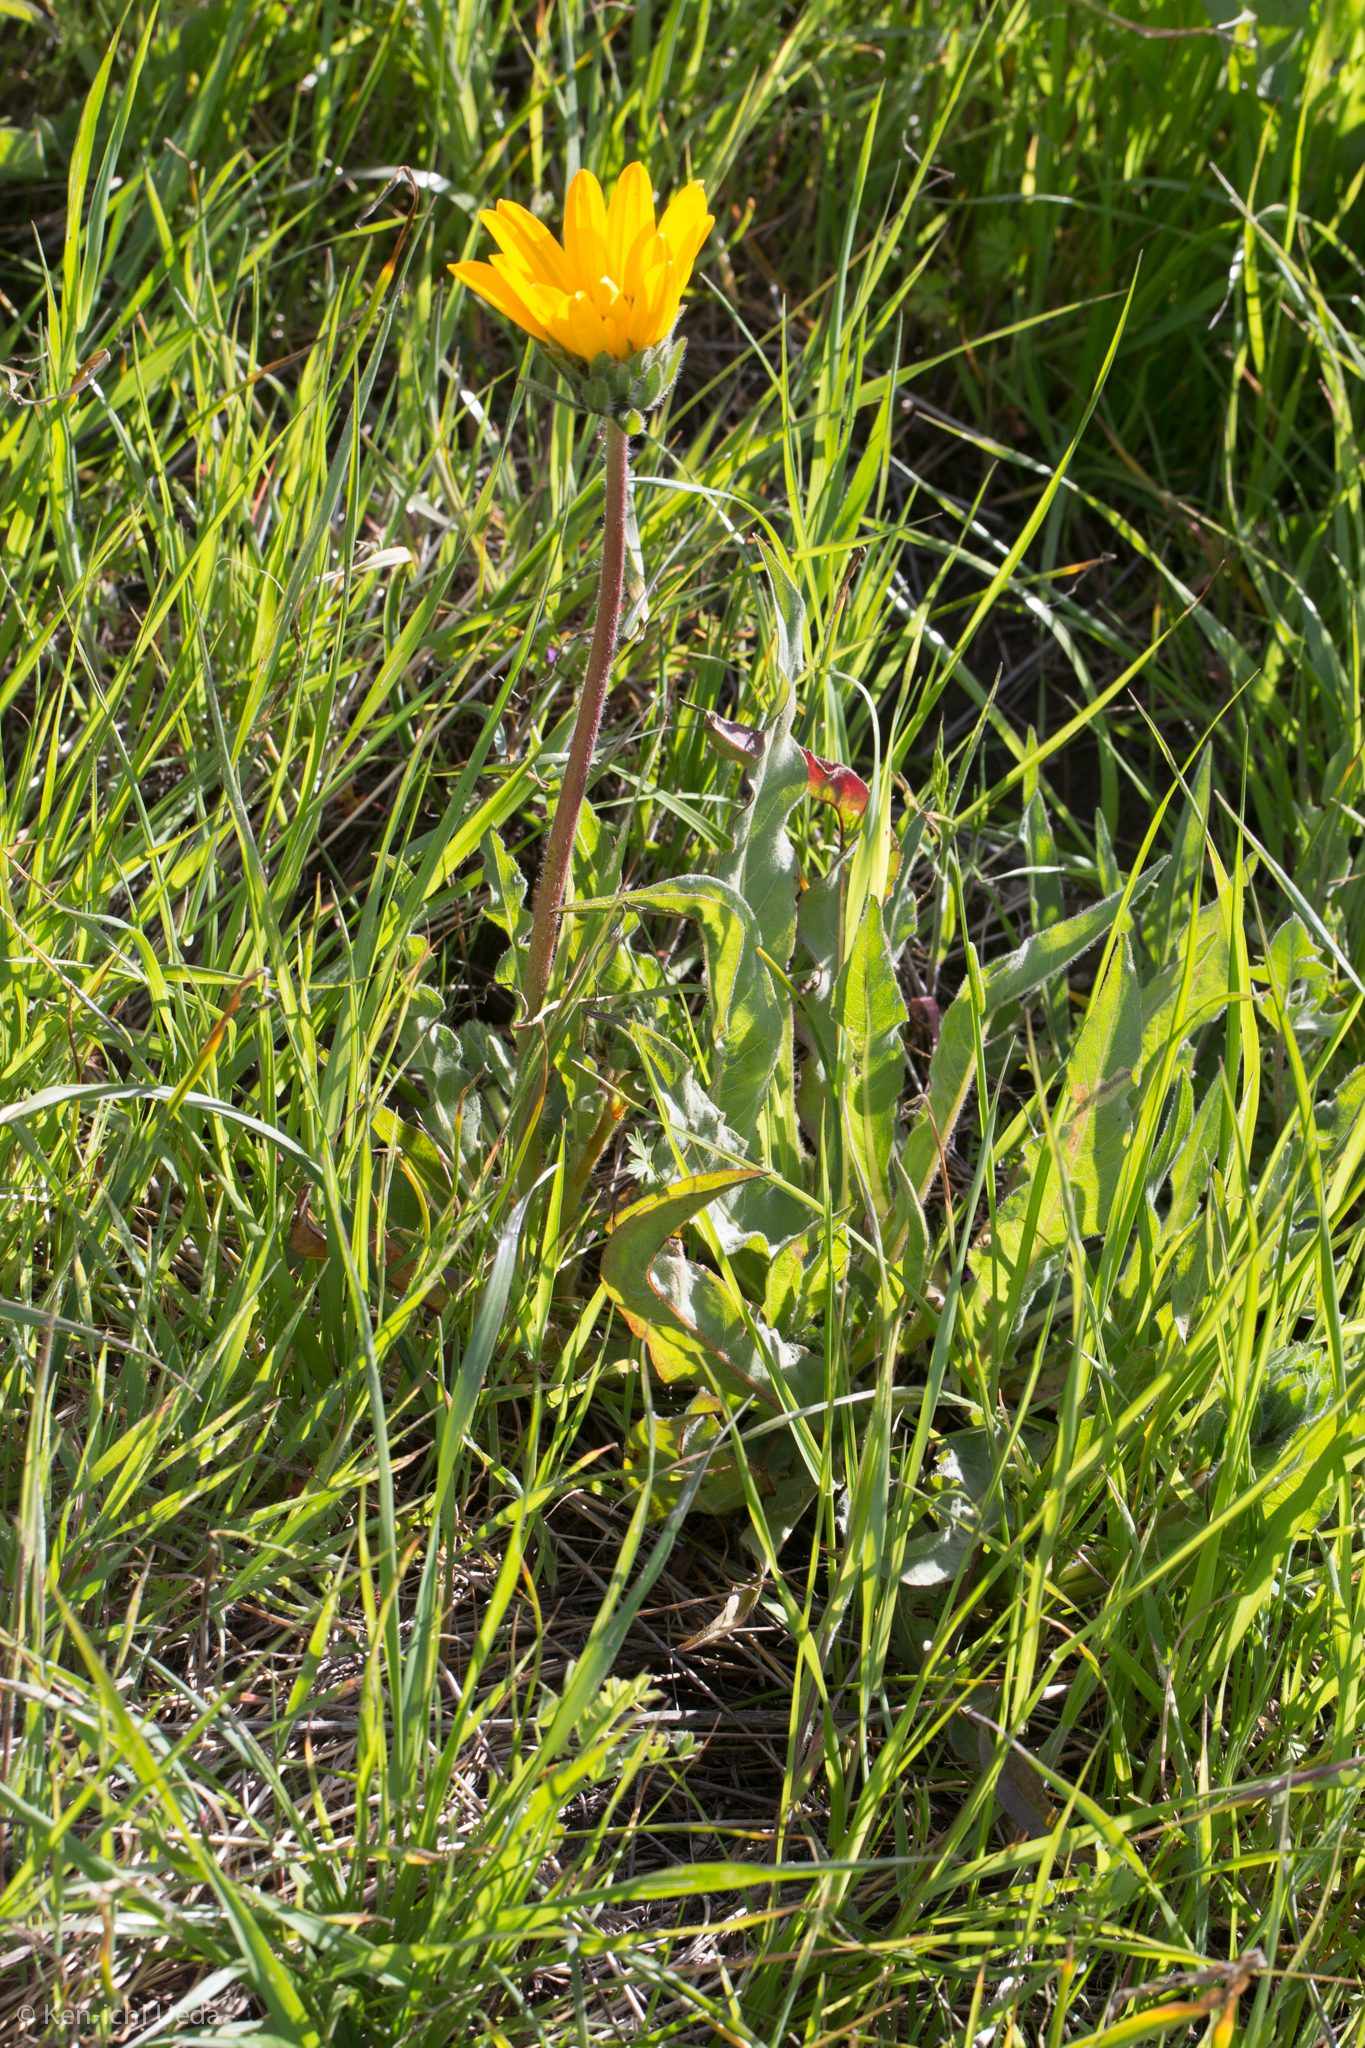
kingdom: Plantae
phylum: Tracheophyta
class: Magnoliopsida
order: Asterales
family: Asteraceae
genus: Wyethia
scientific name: Wyethia angustifolia
